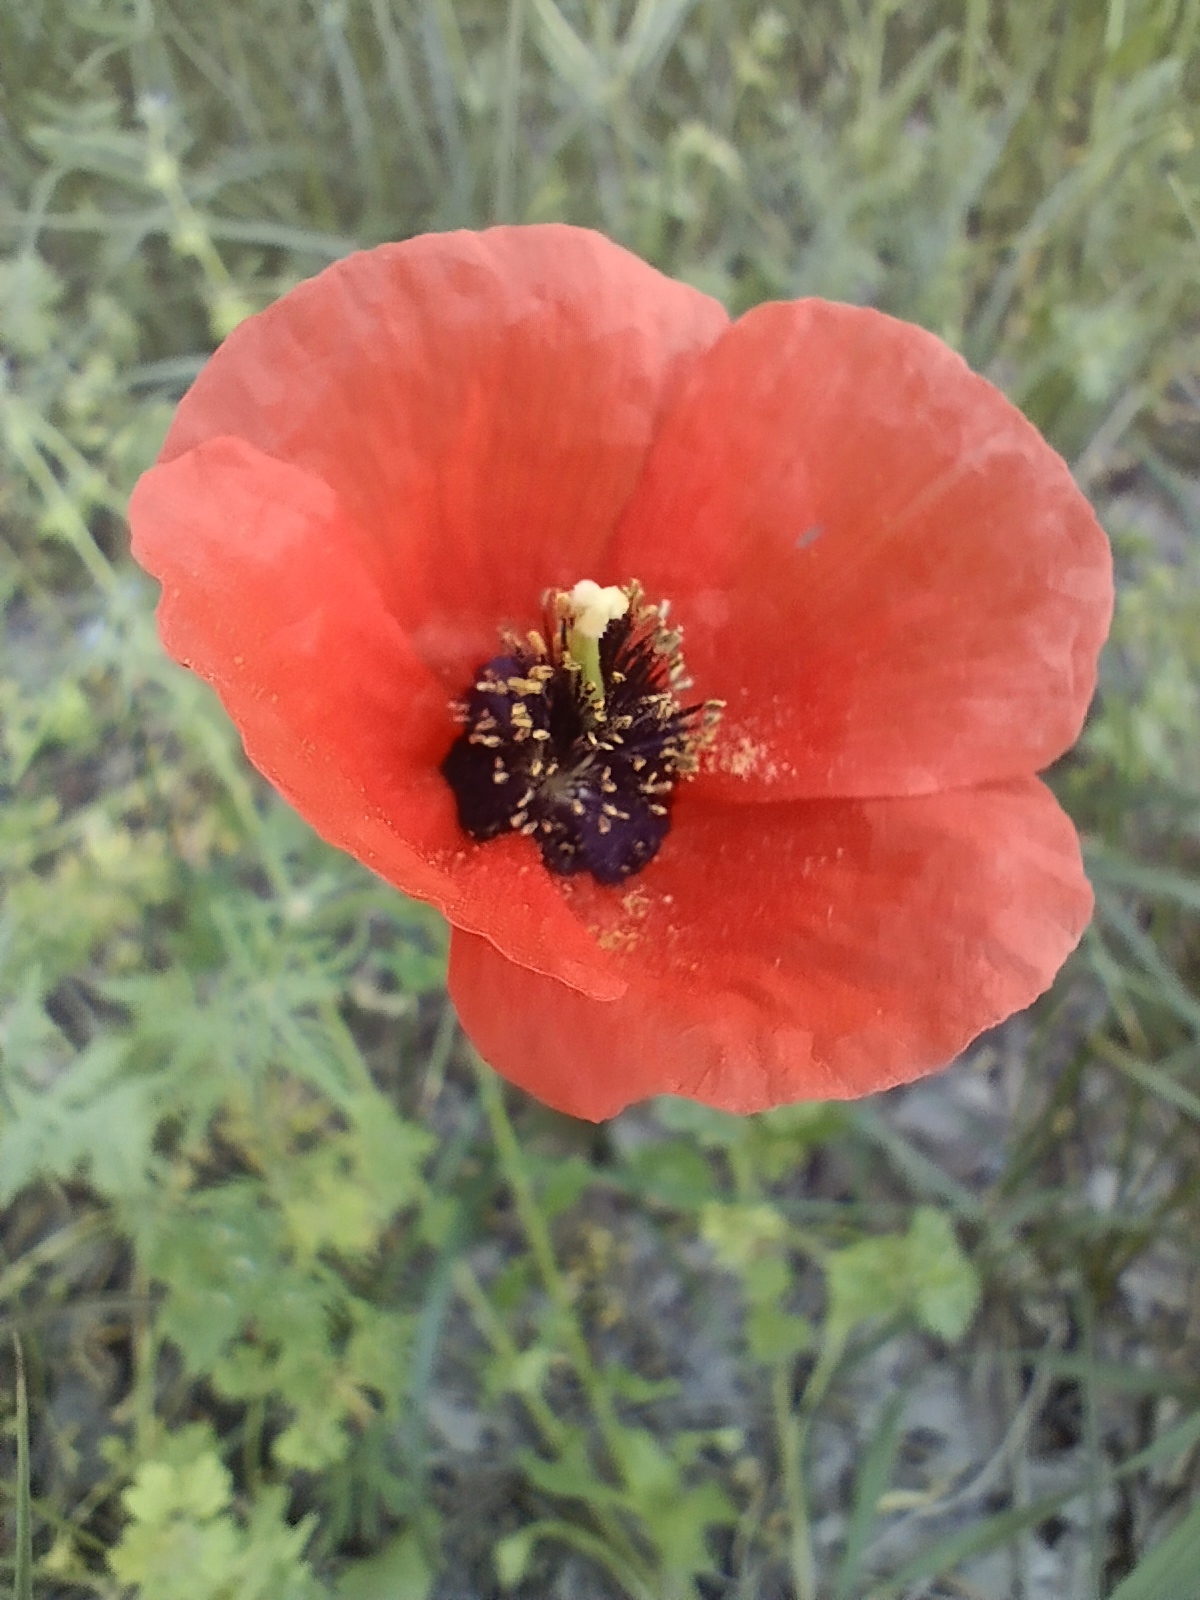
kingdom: Plantae
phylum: Tracheophyta
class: Magnoliopsida
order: Ranunculales
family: Papaveraceae
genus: Roemeria
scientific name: Roemeria refracta
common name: Spotted asian poppy
